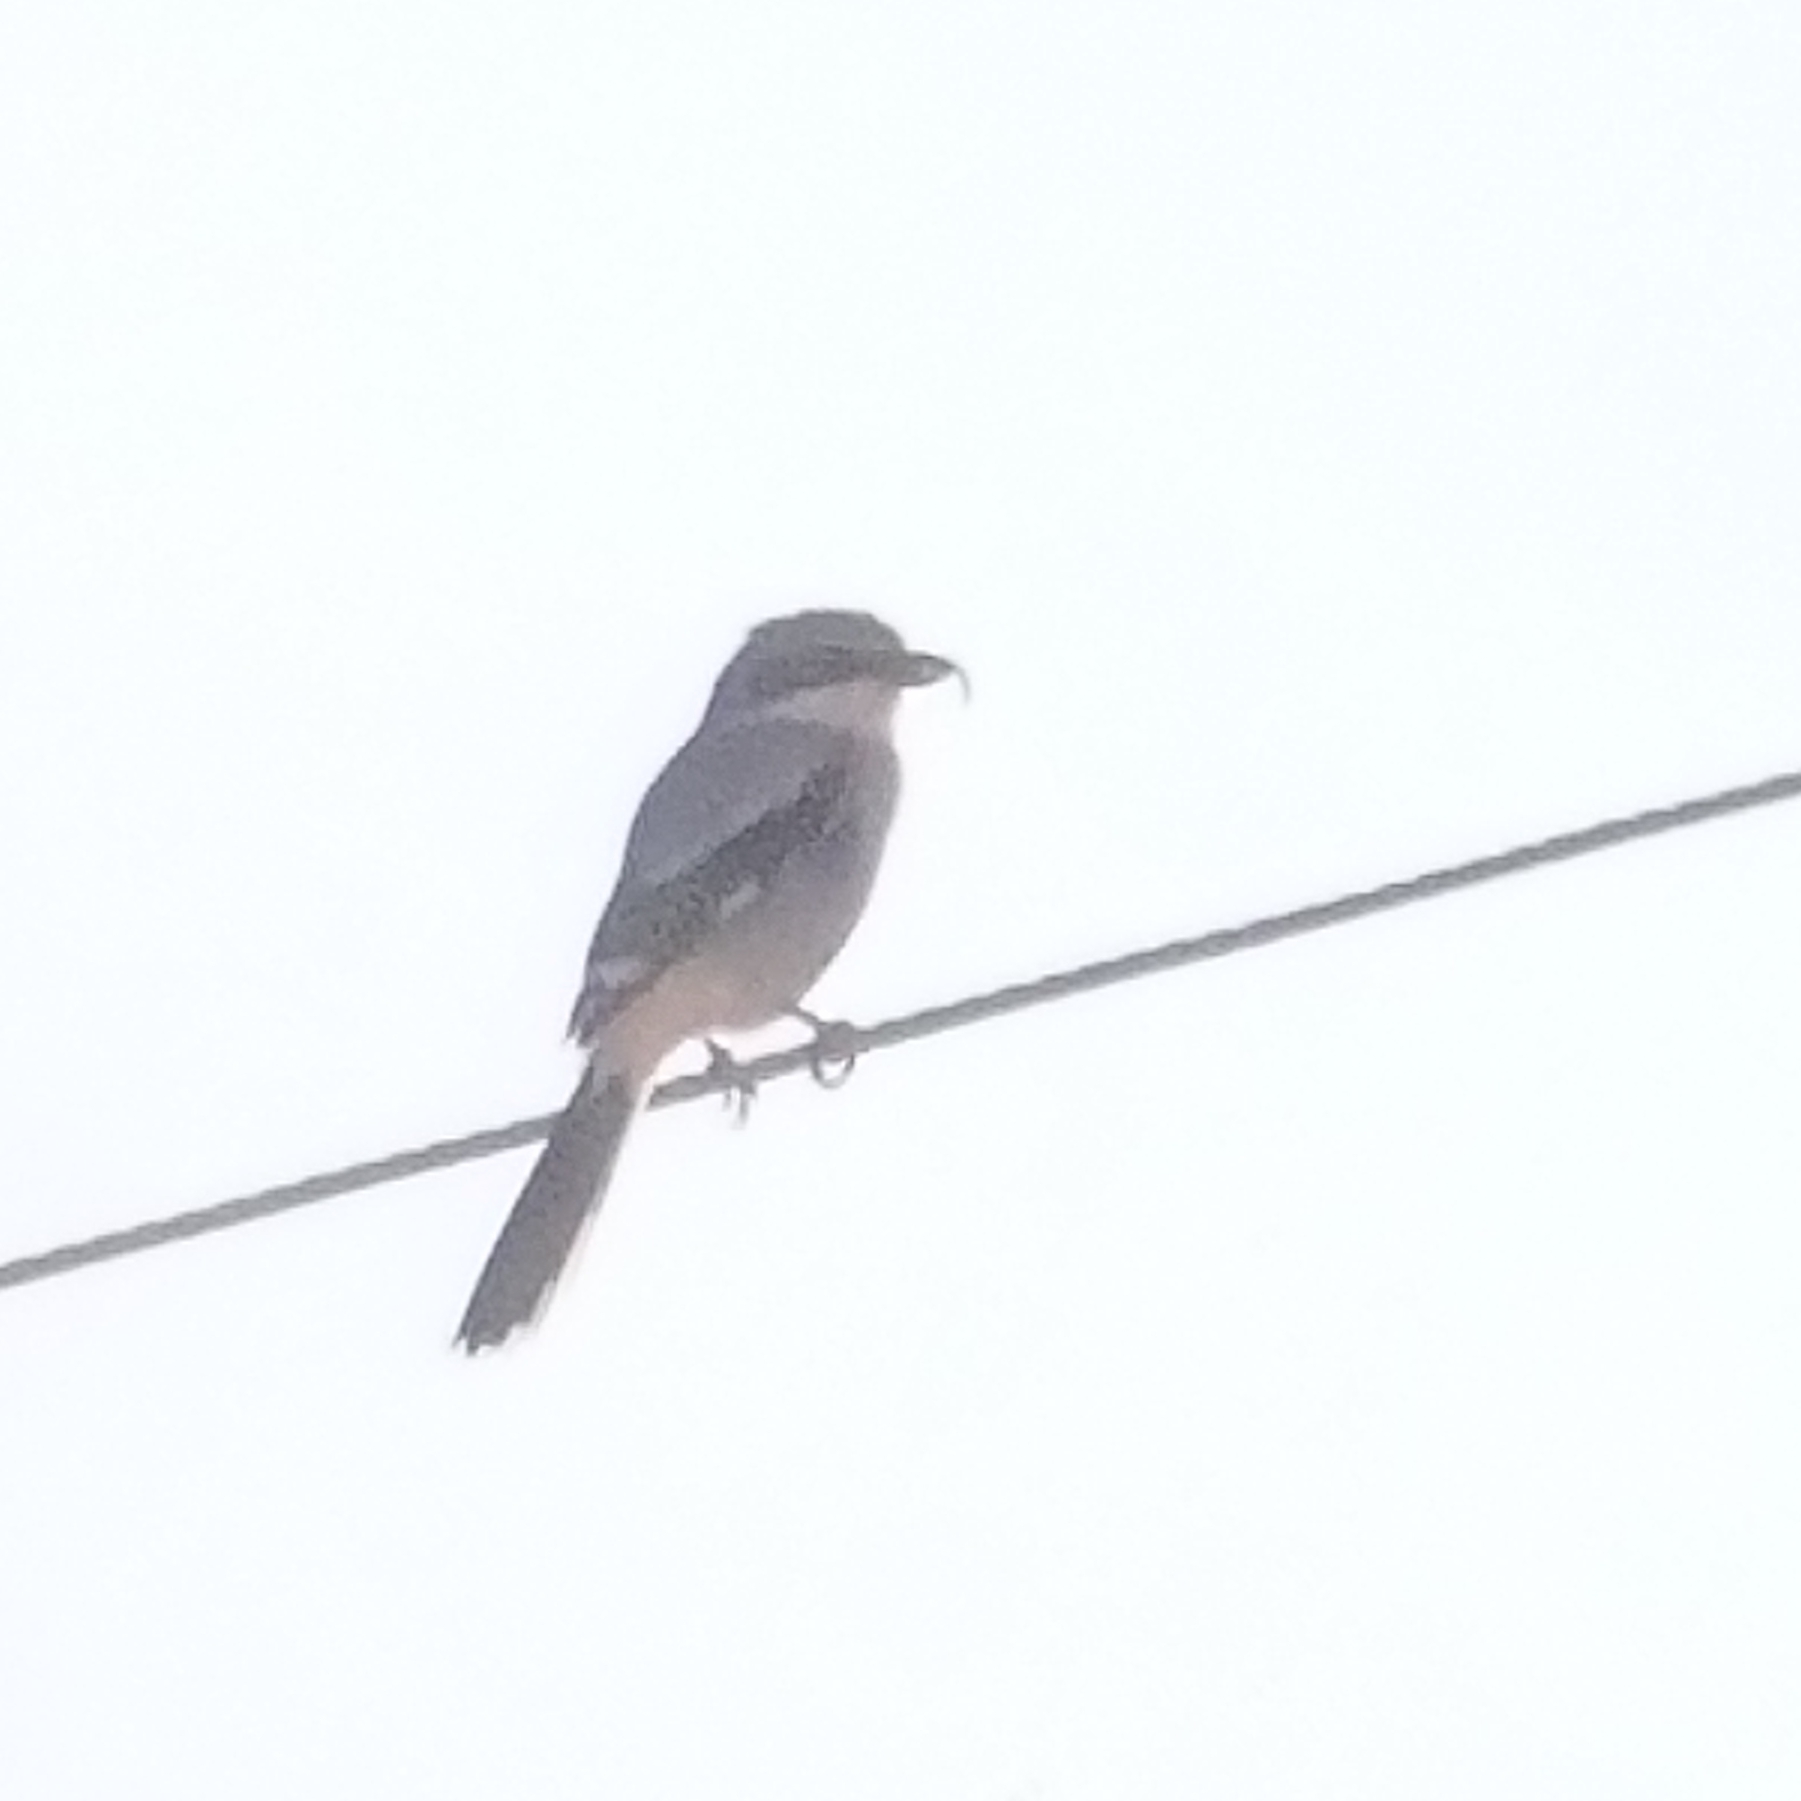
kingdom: Animalia
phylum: Chordata
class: Aves
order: Passeriformes
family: Laniidae
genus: Lanius
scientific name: Lanius ludovicianus
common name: Loggerhead shrike
